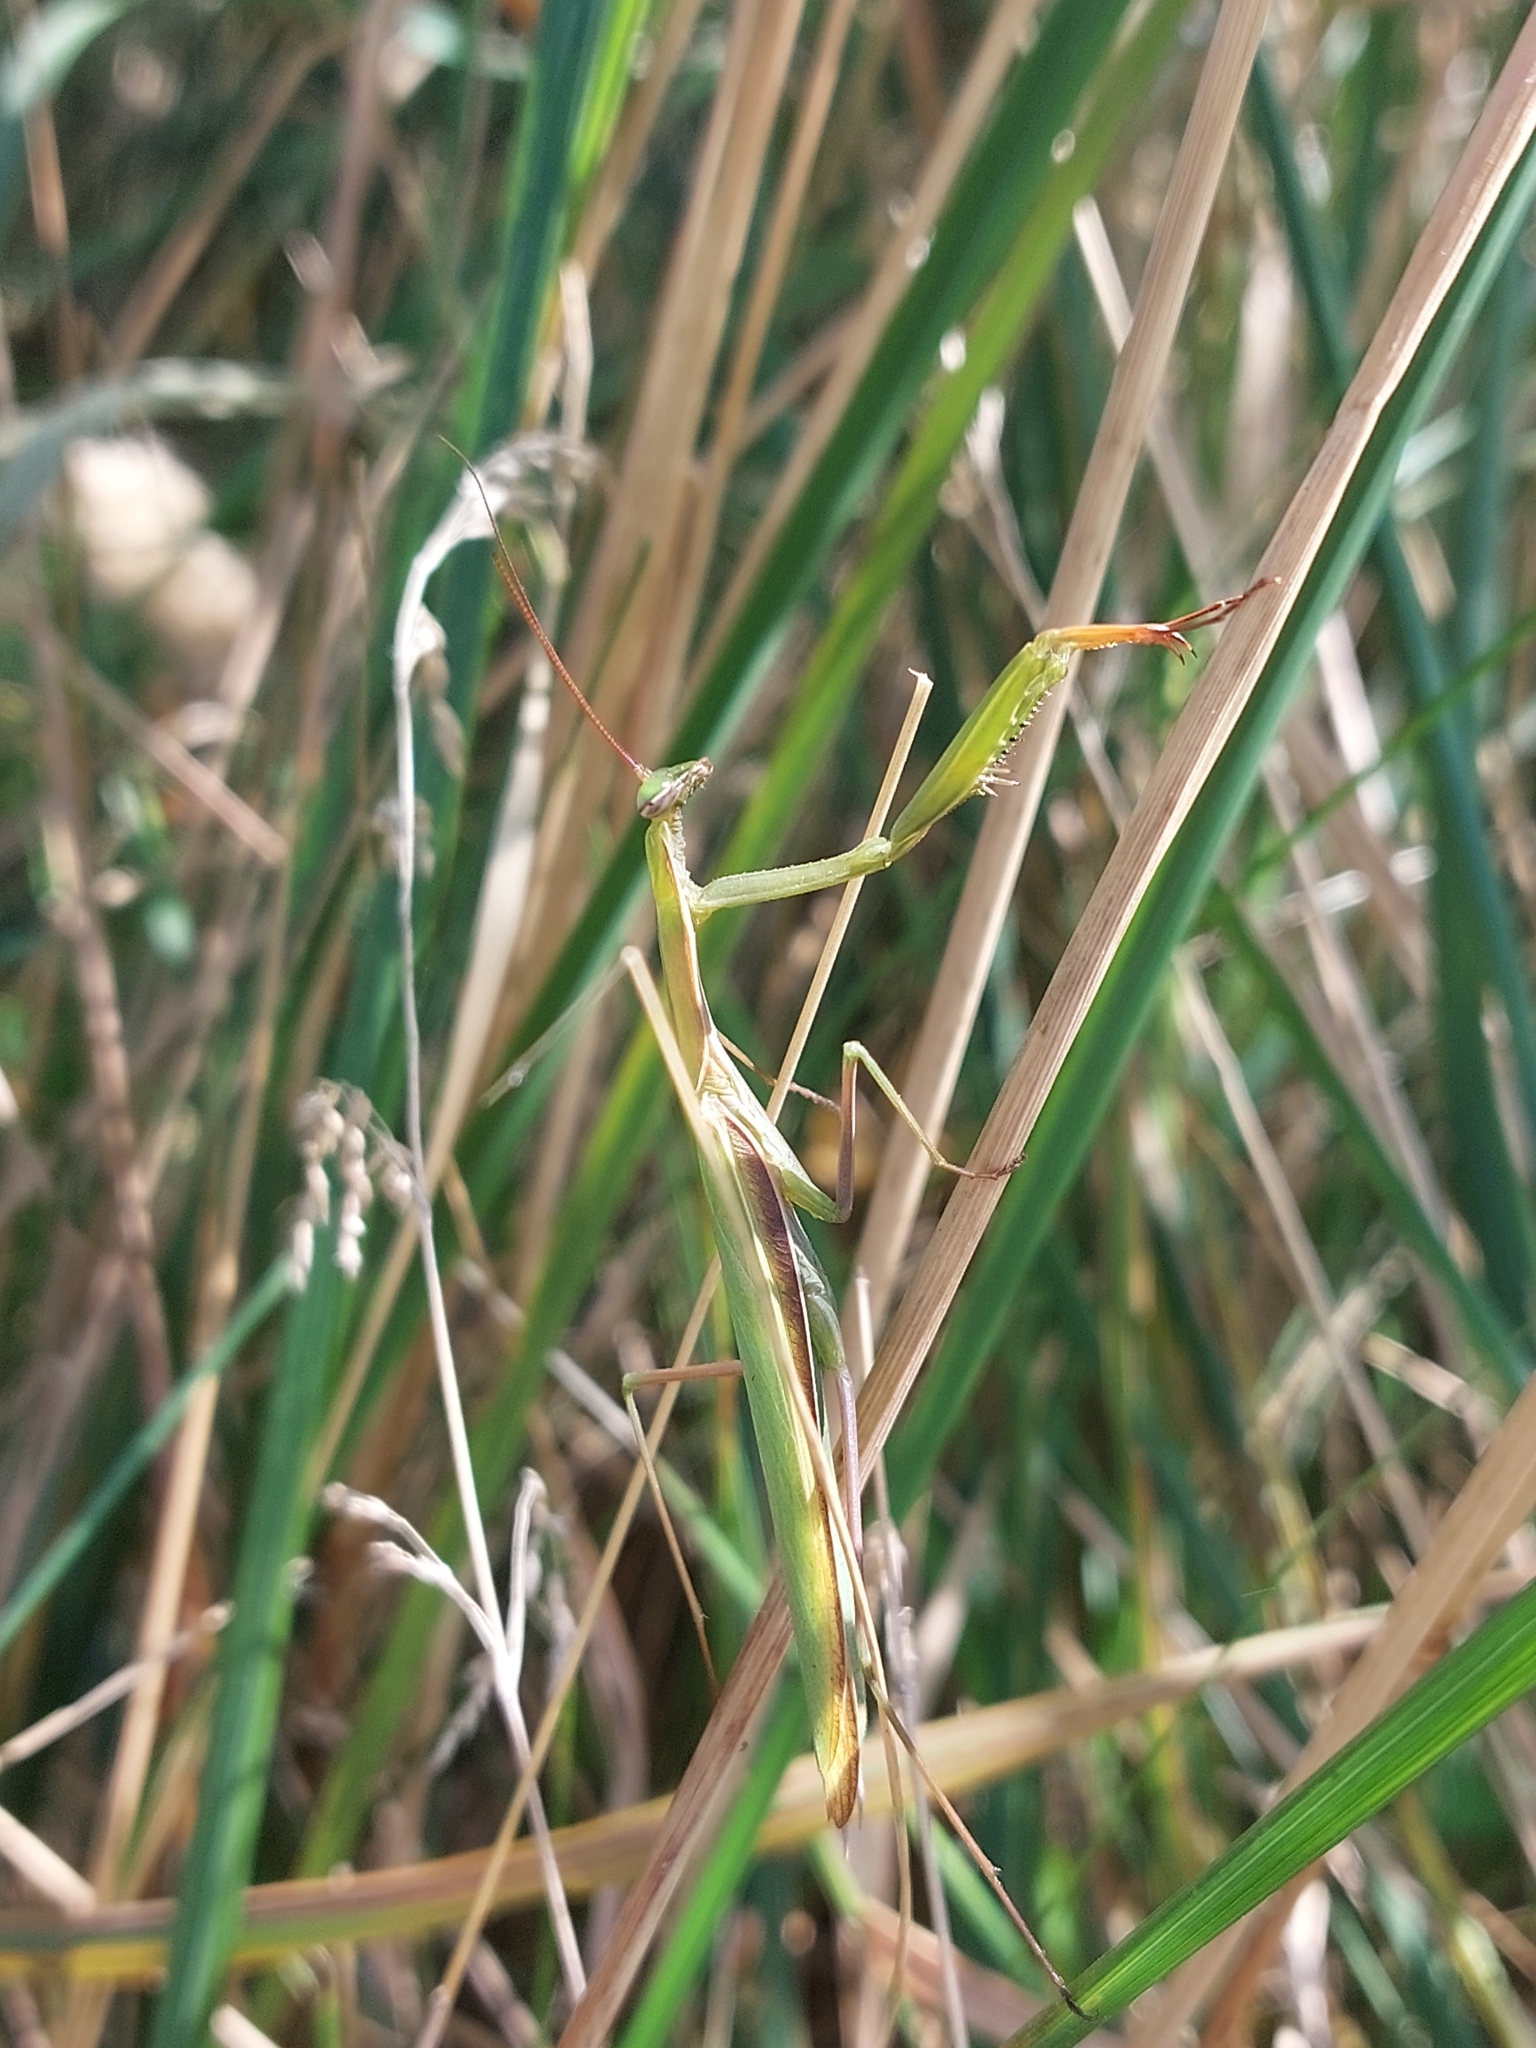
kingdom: Animalia
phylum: Arthropoda
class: Insecta
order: Mantodea
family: Mantidae
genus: Mantis
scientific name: Mantis religiosa
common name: Praying mantis
